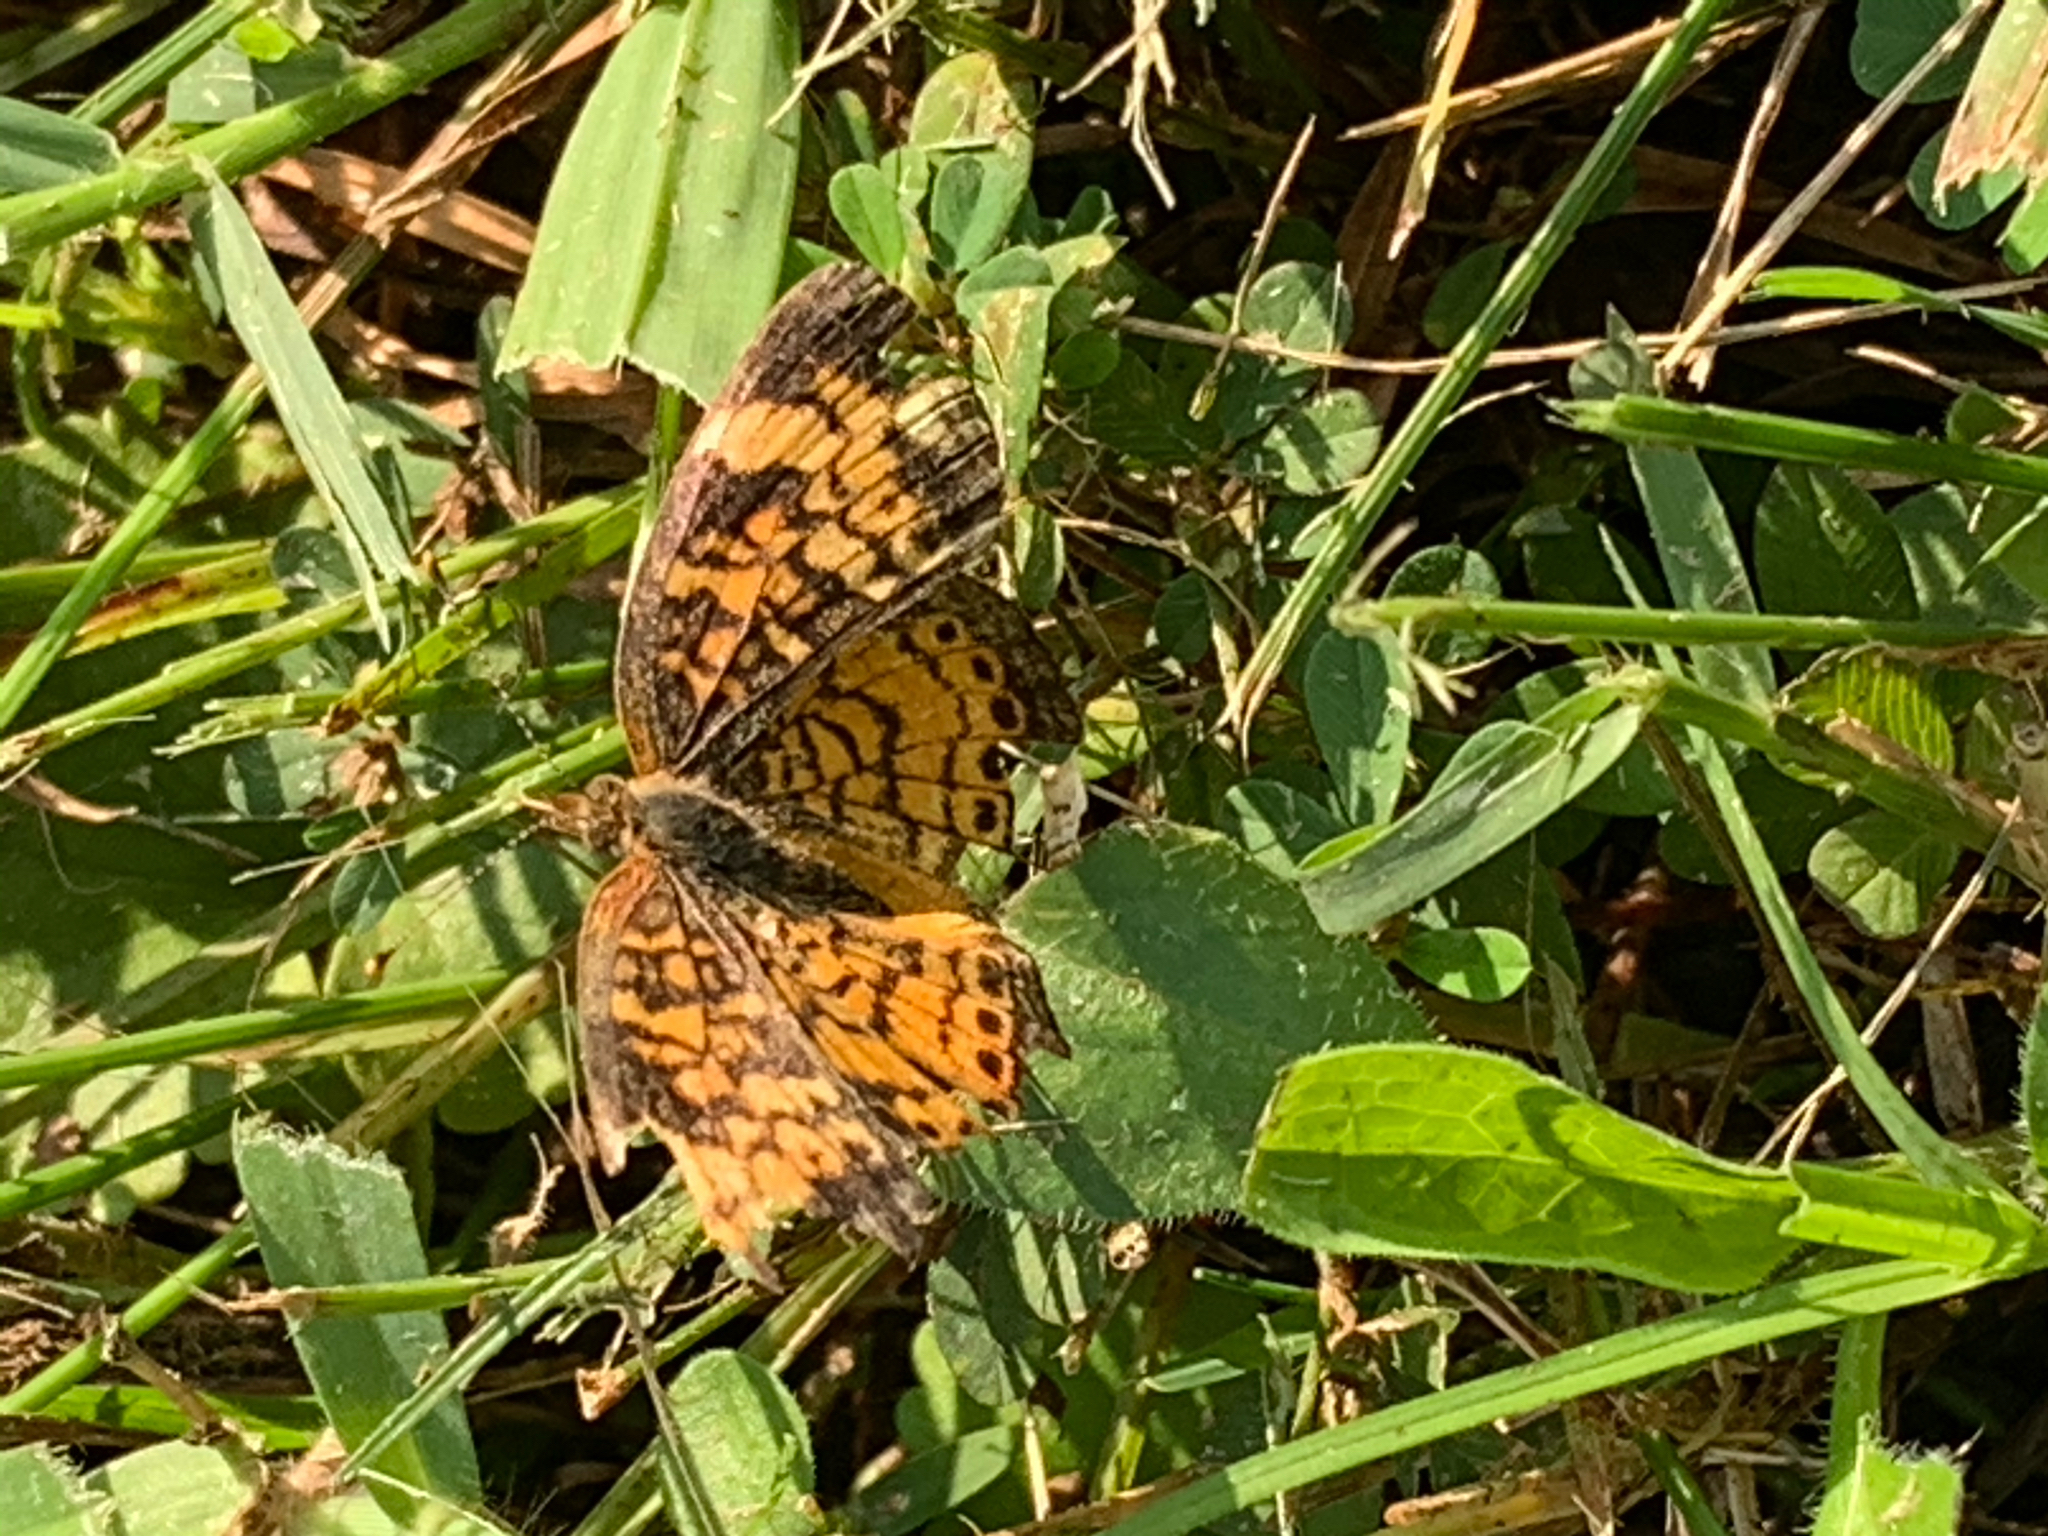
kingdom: Animalia
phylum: Arthropoda
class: Insecta
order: Lepidoptera
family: Nymphalidae
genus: Phyciodes
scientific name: Phyciodes tharos
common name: Pearl crescent
